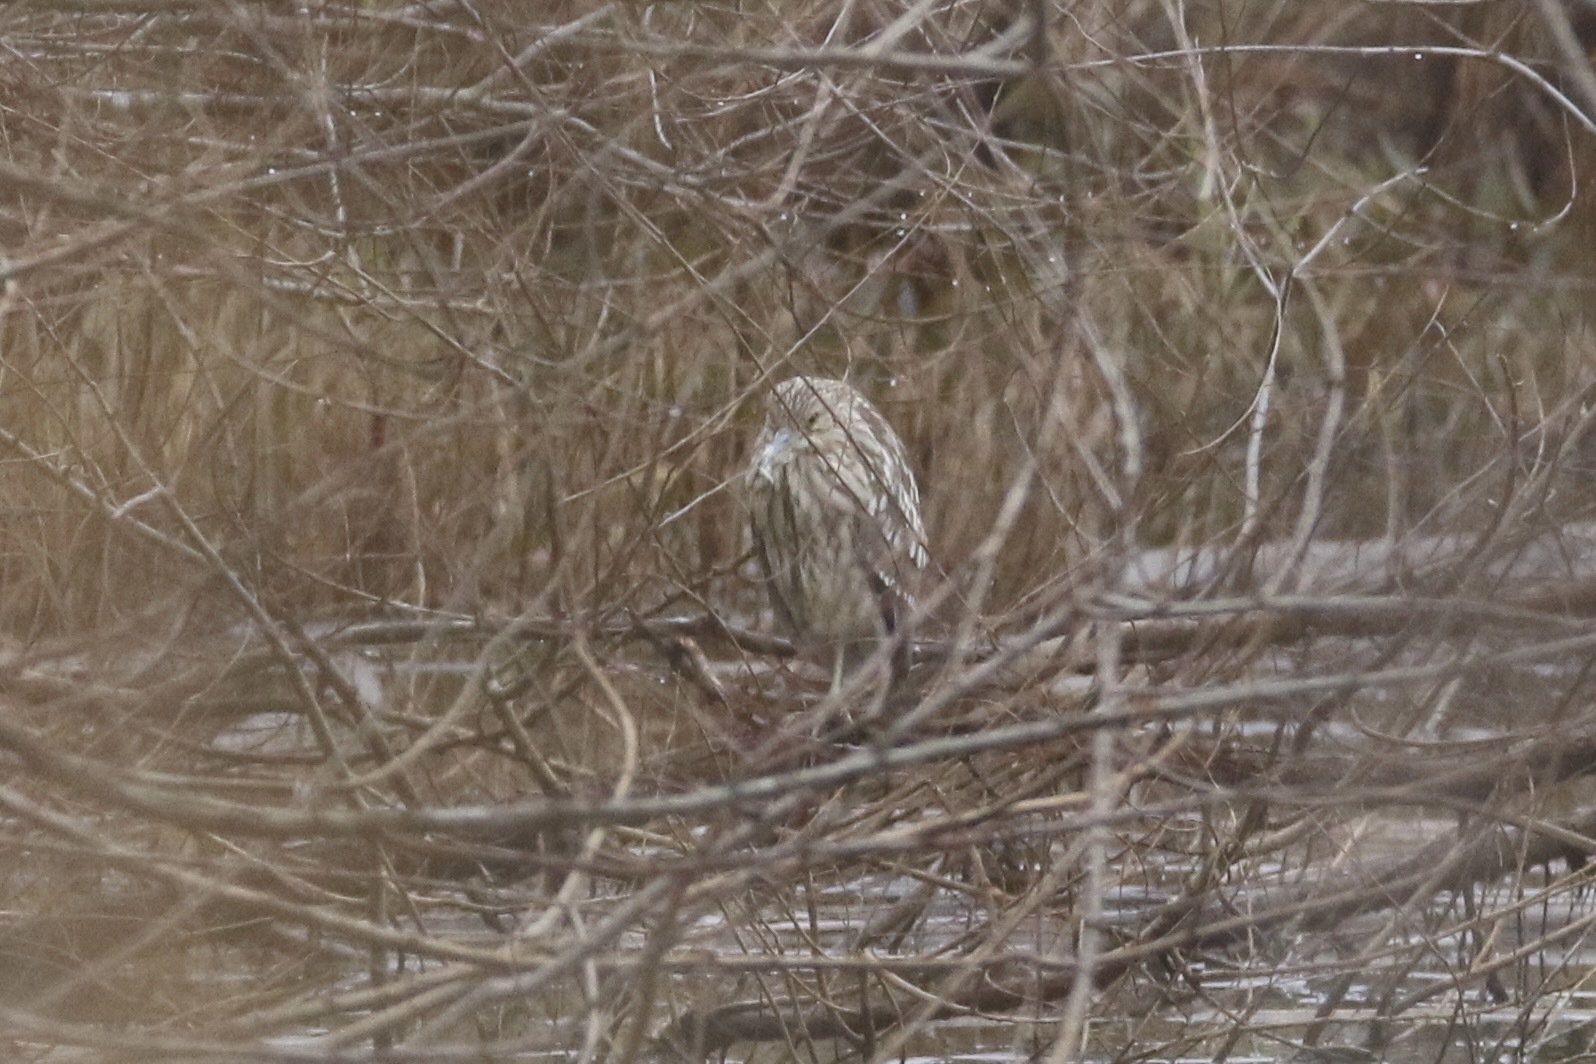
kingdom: Animalia
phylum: Chordata
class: Aves
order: Pelecaniformes
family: Ardeidae
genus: Nycticorax
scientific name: Nycticorax nycticorax
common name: Black-crowned night heron
